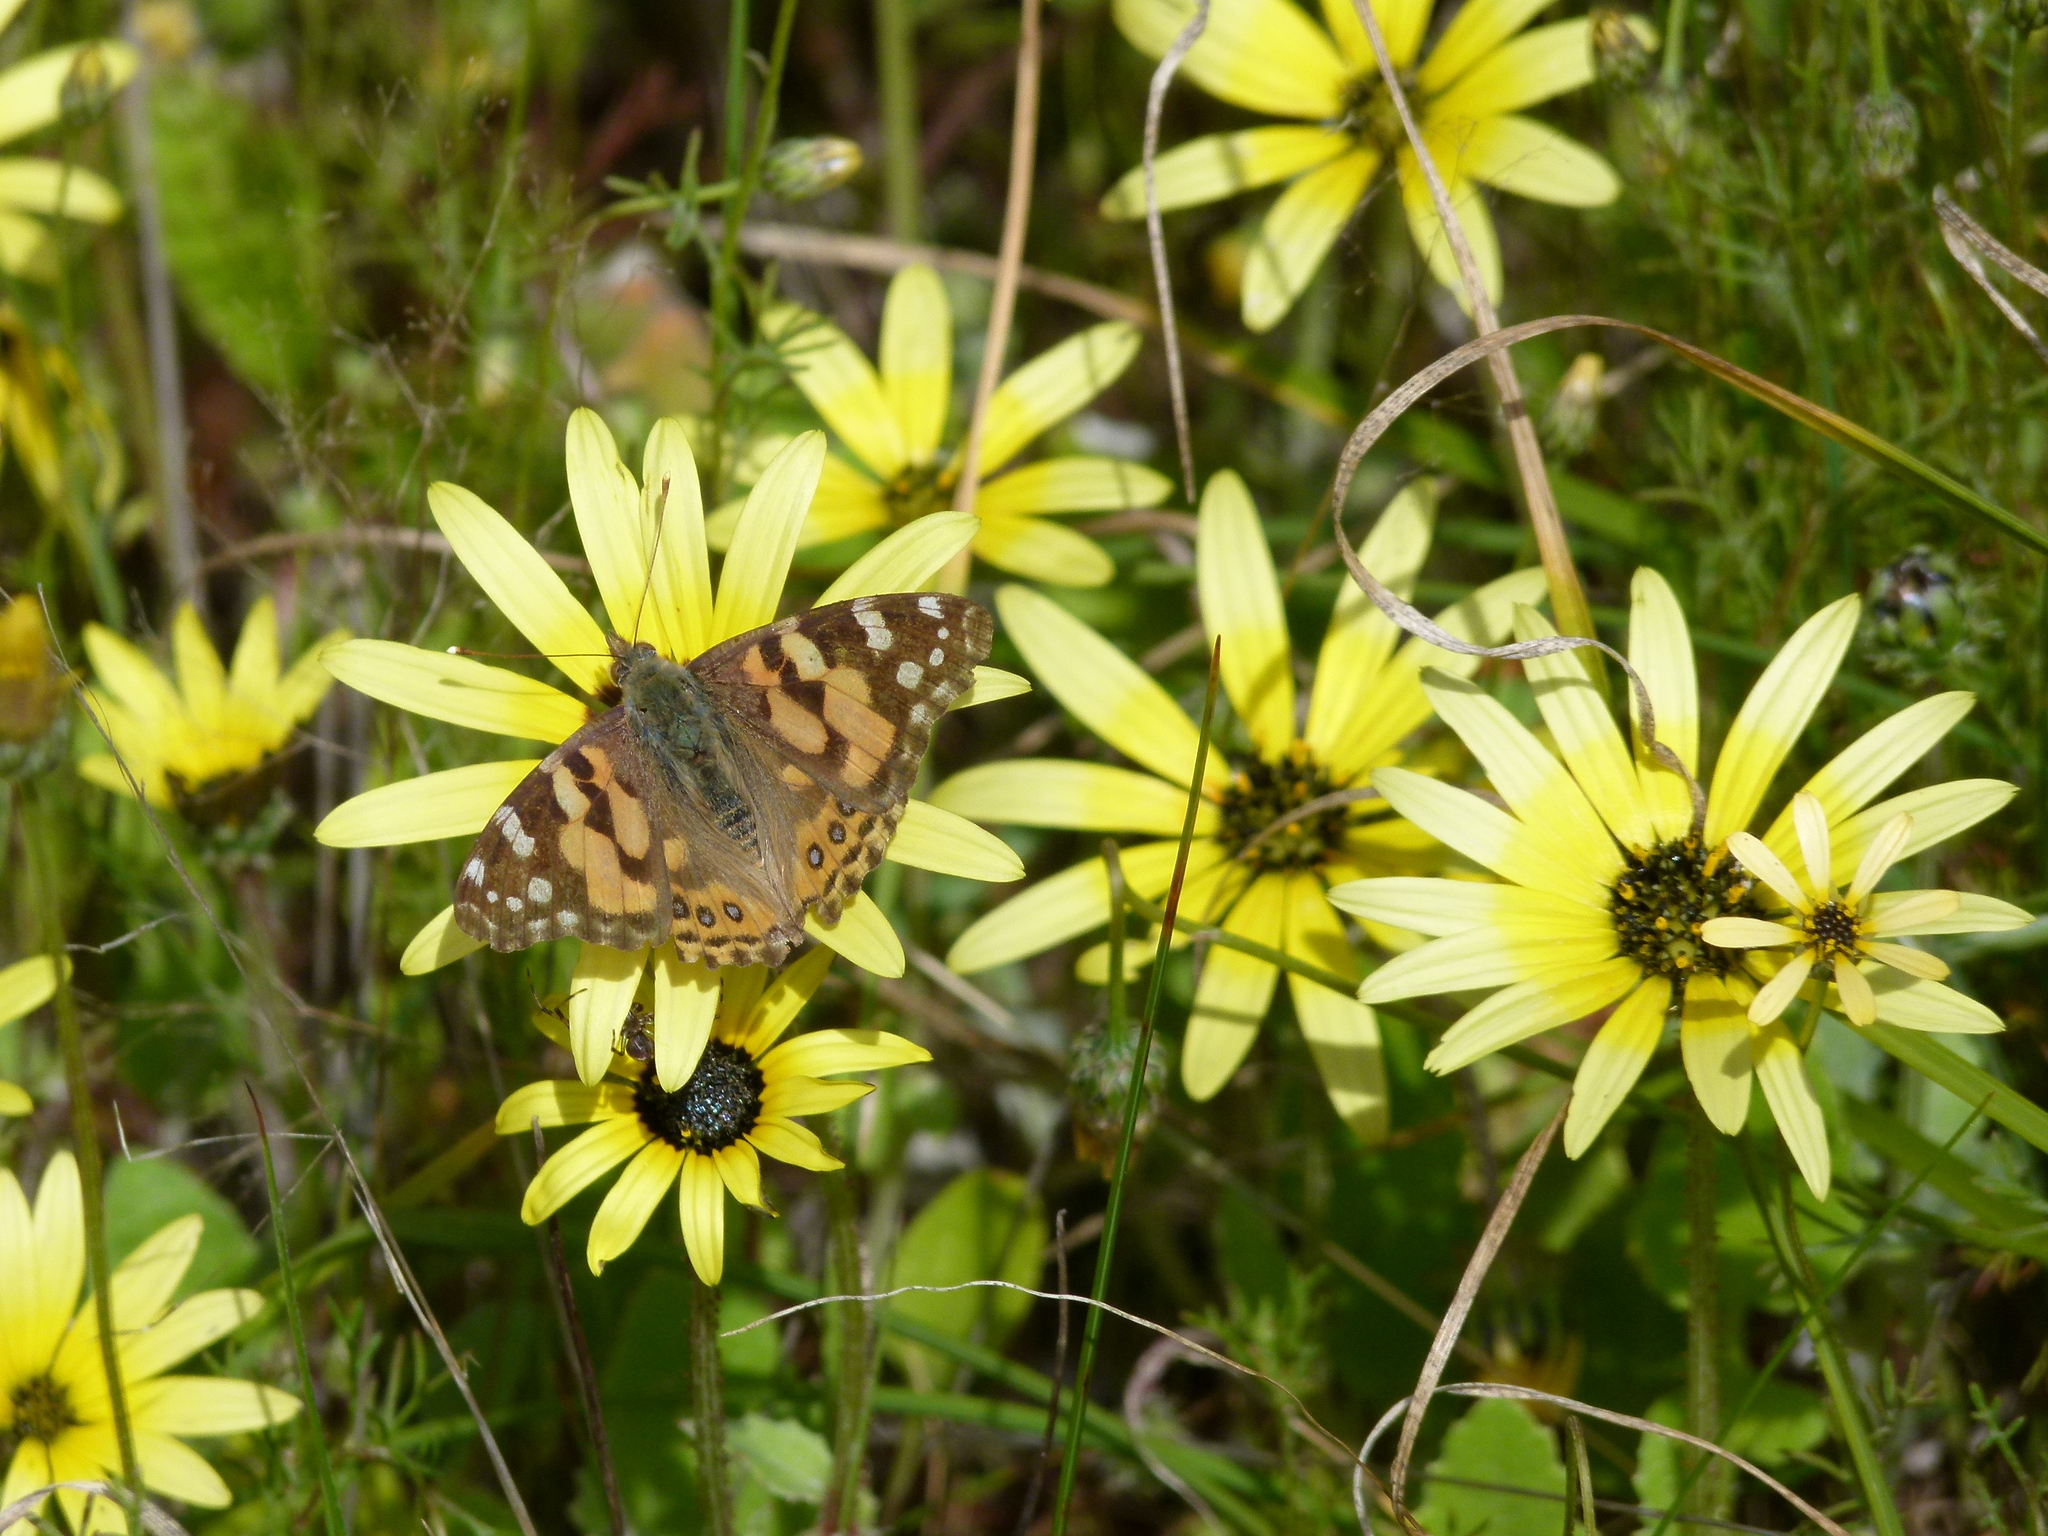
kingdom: Plantae
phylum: Tracheophyta
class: Magnoliopsida
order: Asterales
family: Asteraceae
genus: Arctotheca
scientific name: Arctotheca calendula
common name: Capeweed
